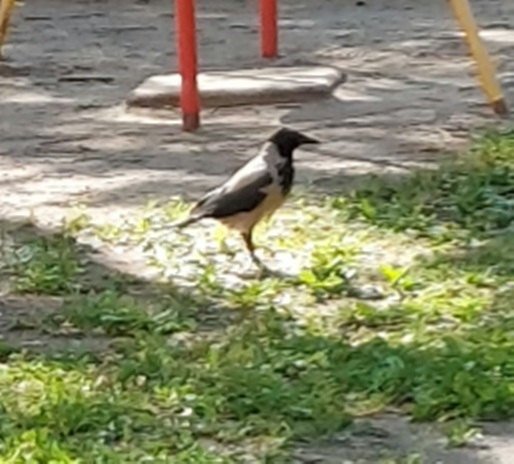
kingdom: Animalia
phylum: Chordata
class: Aves
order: Passeriformes
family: Corvidae
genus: Corvus
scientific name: Corvus cornix
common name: Hooded crow
